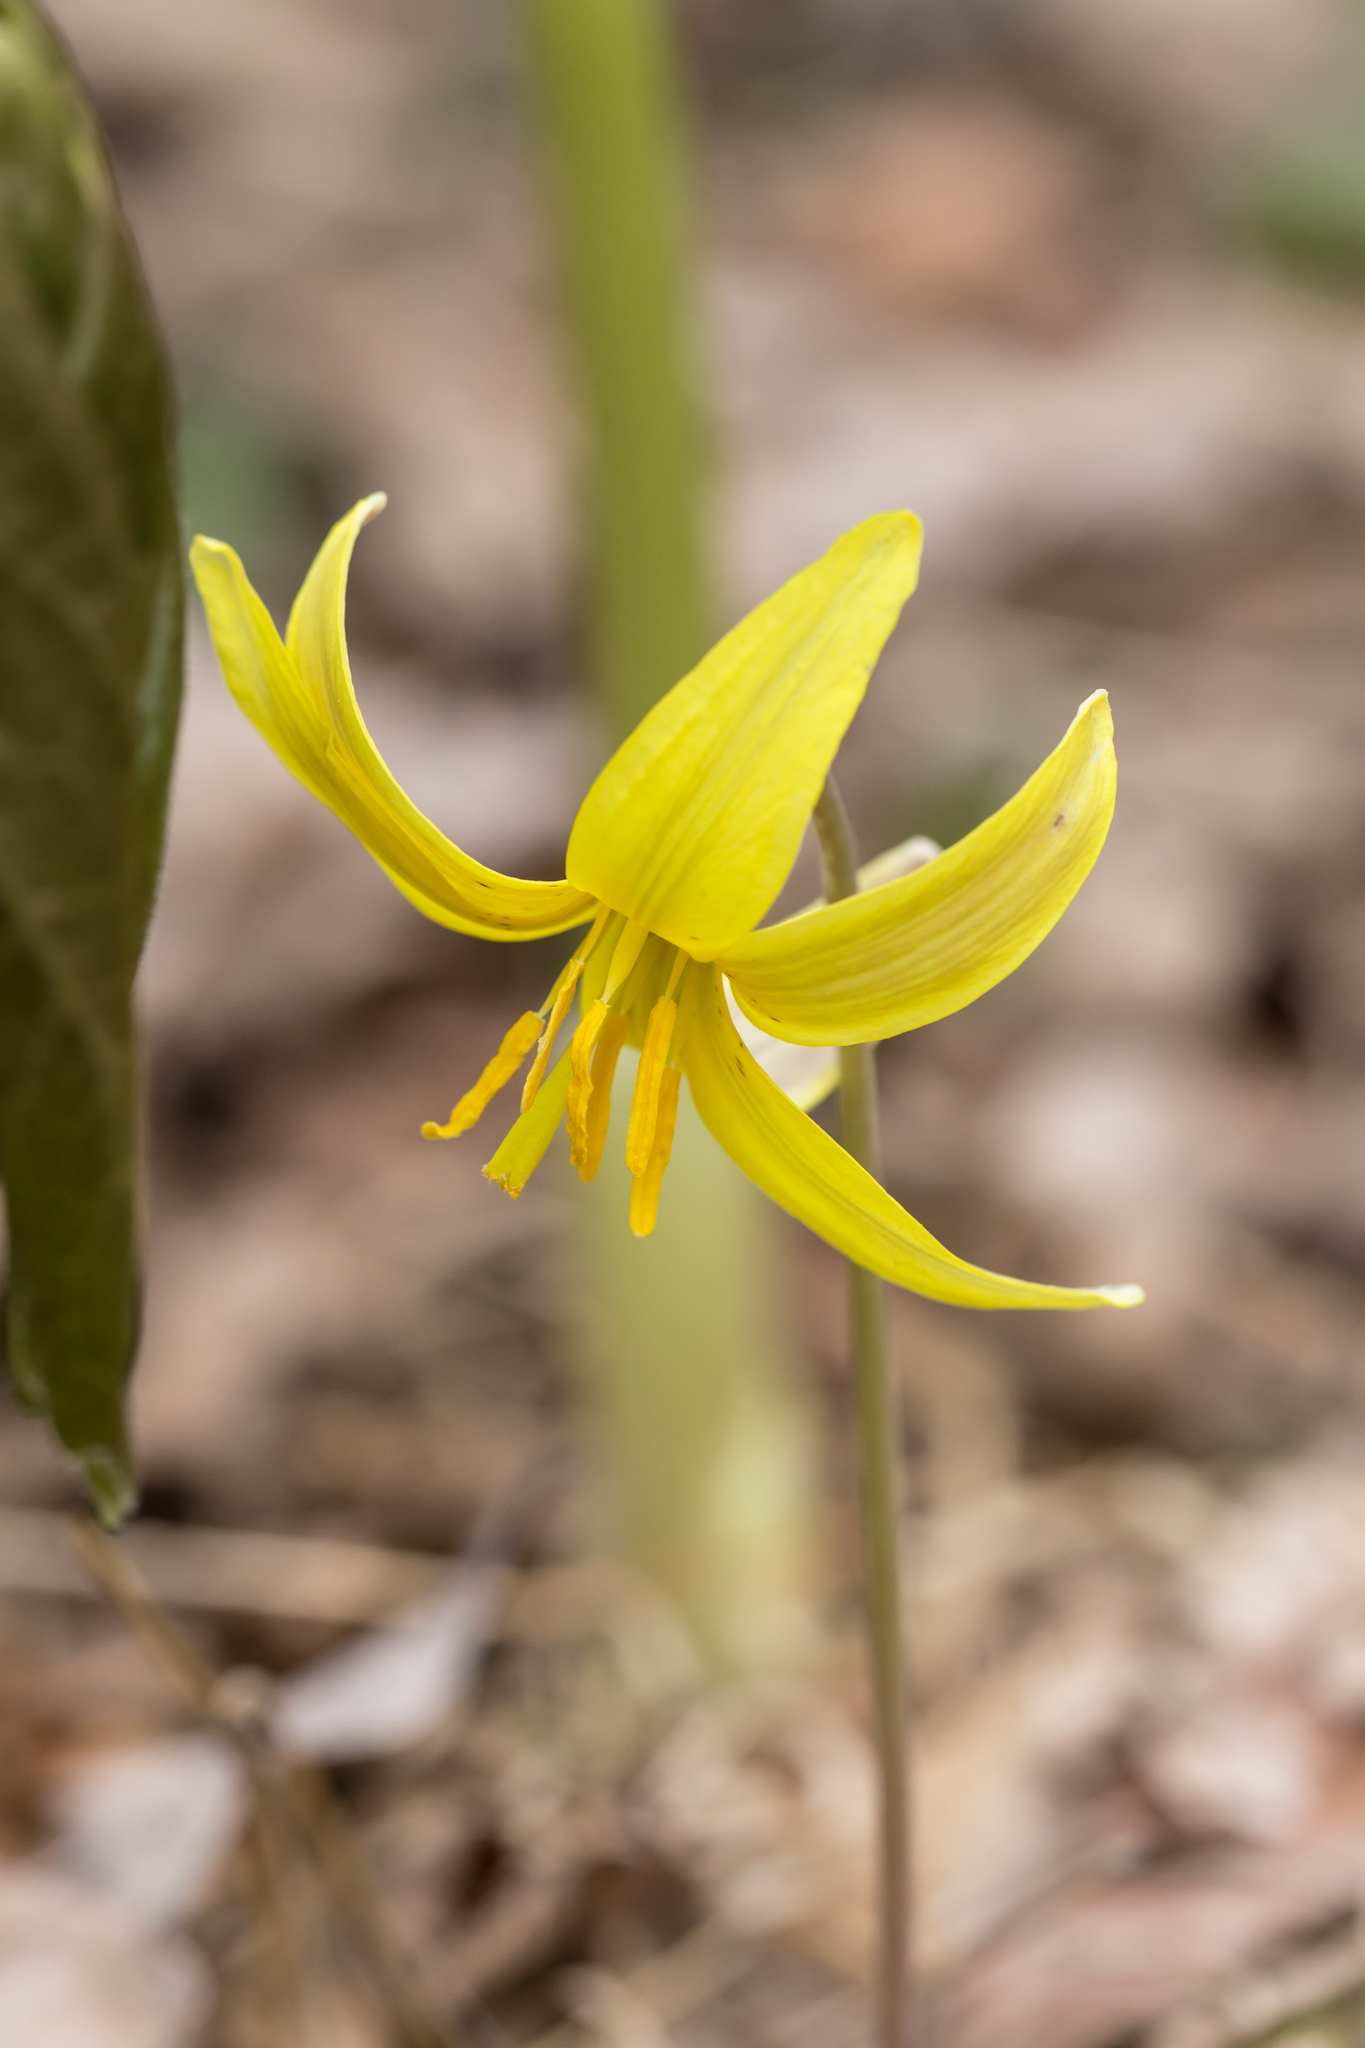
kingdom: Plantae
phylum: Tracheophyta
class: Liliopsida
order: Liliales
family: Liliaceae
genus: Erythronium
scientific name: Erythronium americanum
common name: Yellow adder's-tongue
